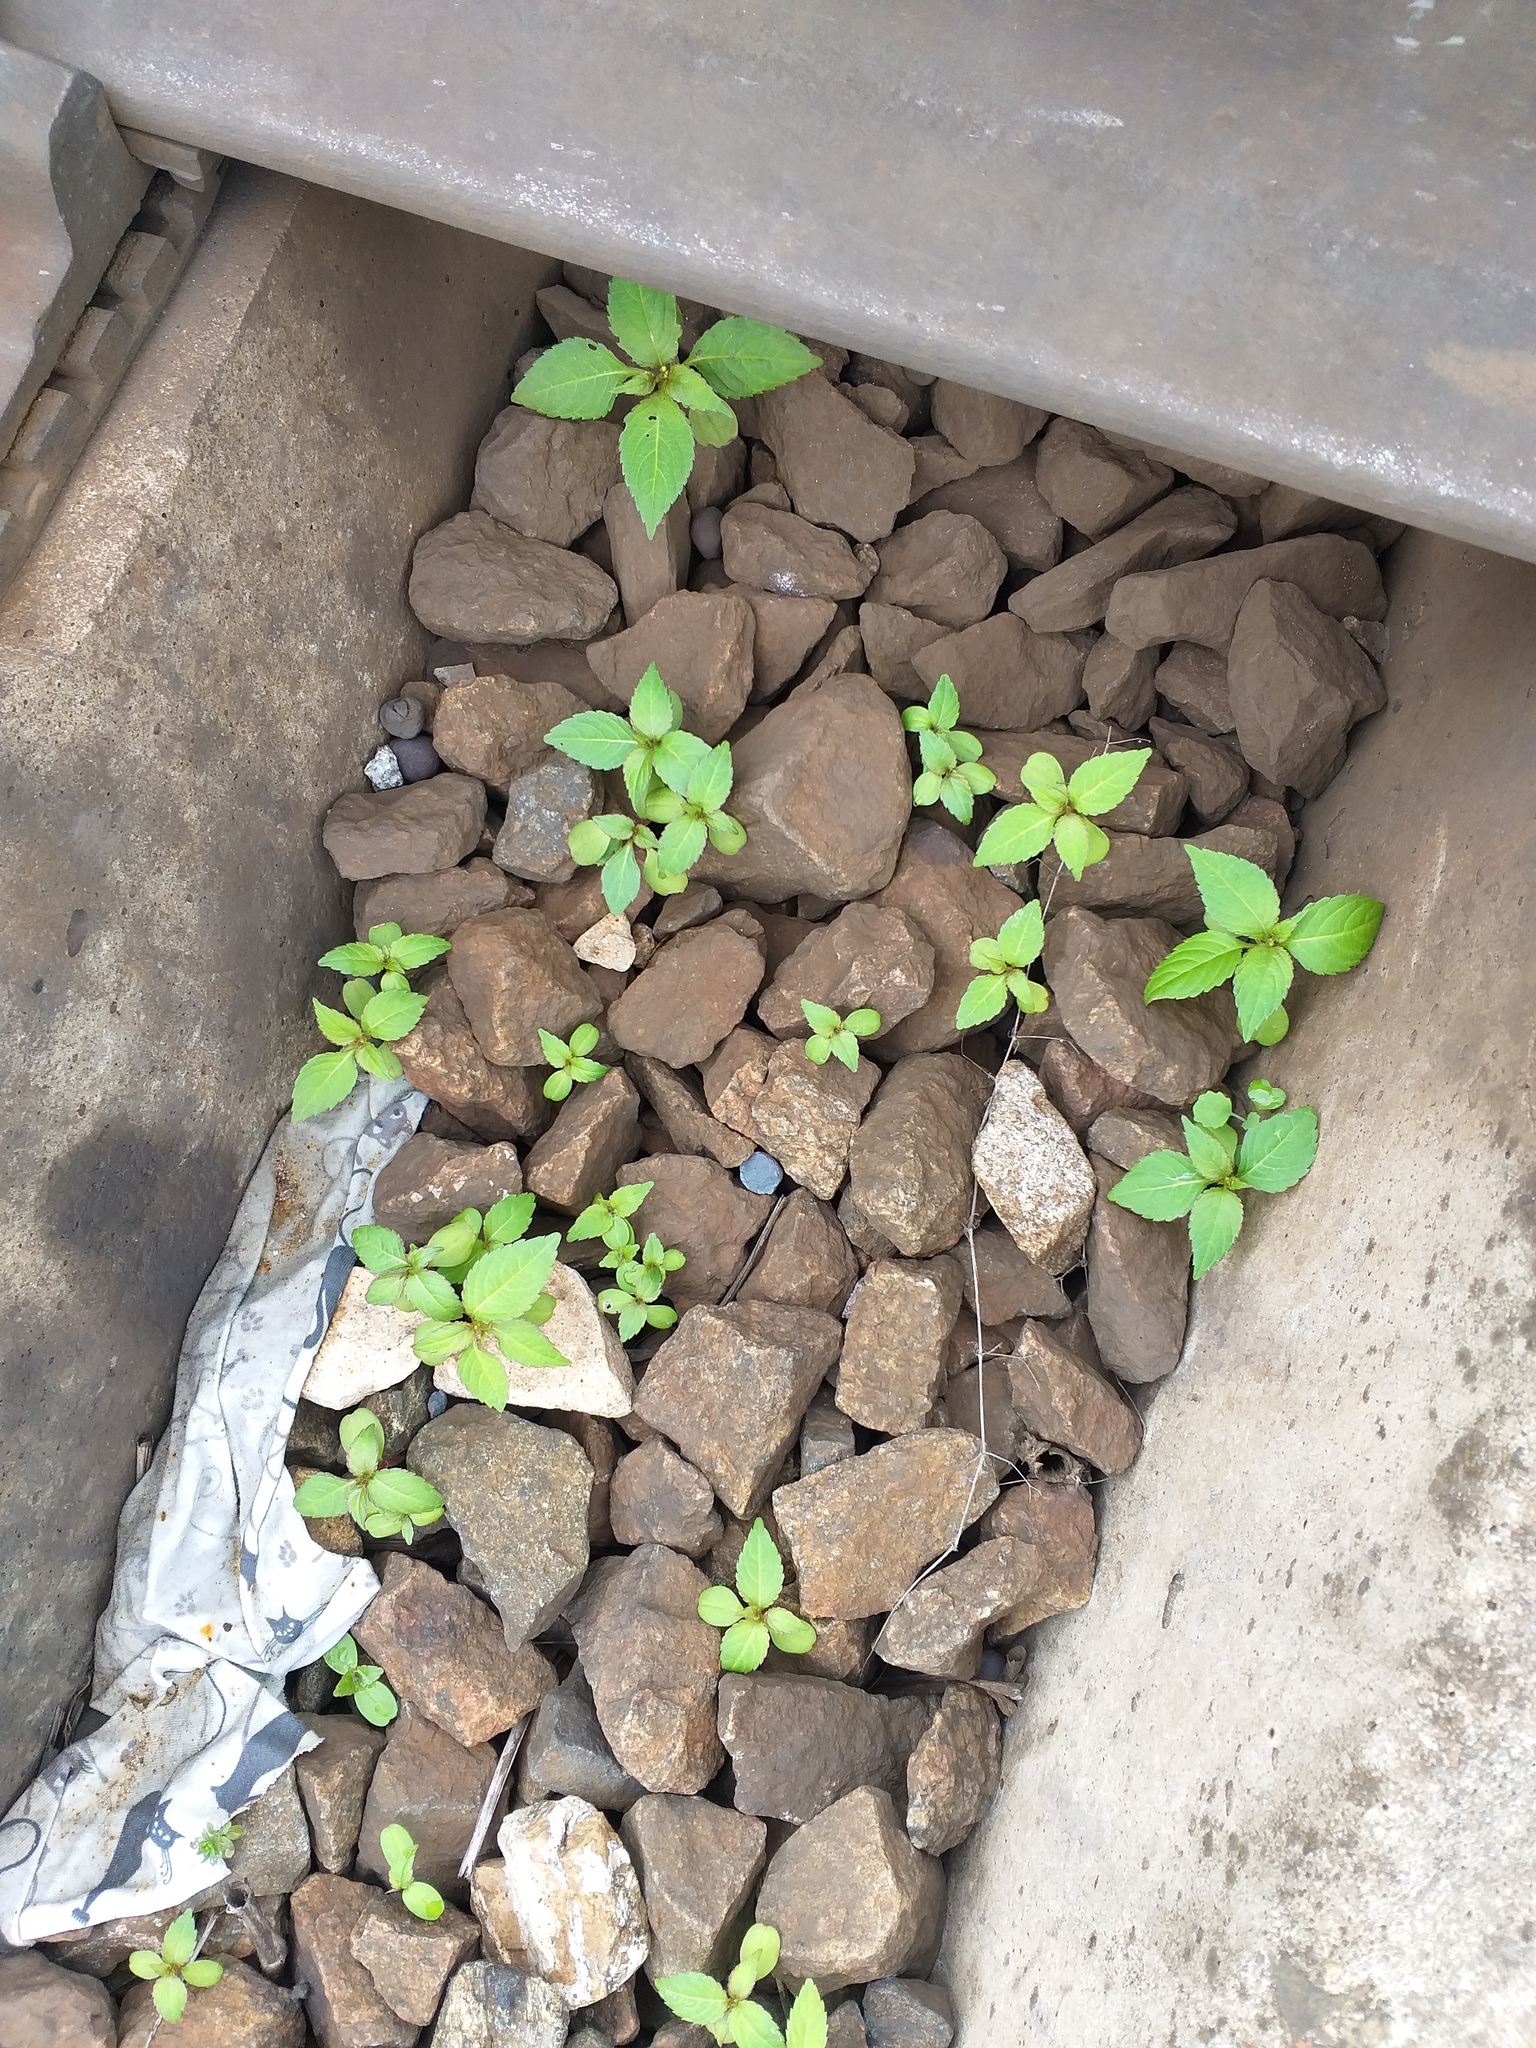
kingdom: Plantae
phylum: Tracheophyta
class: Magnoliopsida
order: Ericales
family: Balsaminaceae
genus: Impatiens
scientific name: Impatiens parviflora
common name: Small balsam
